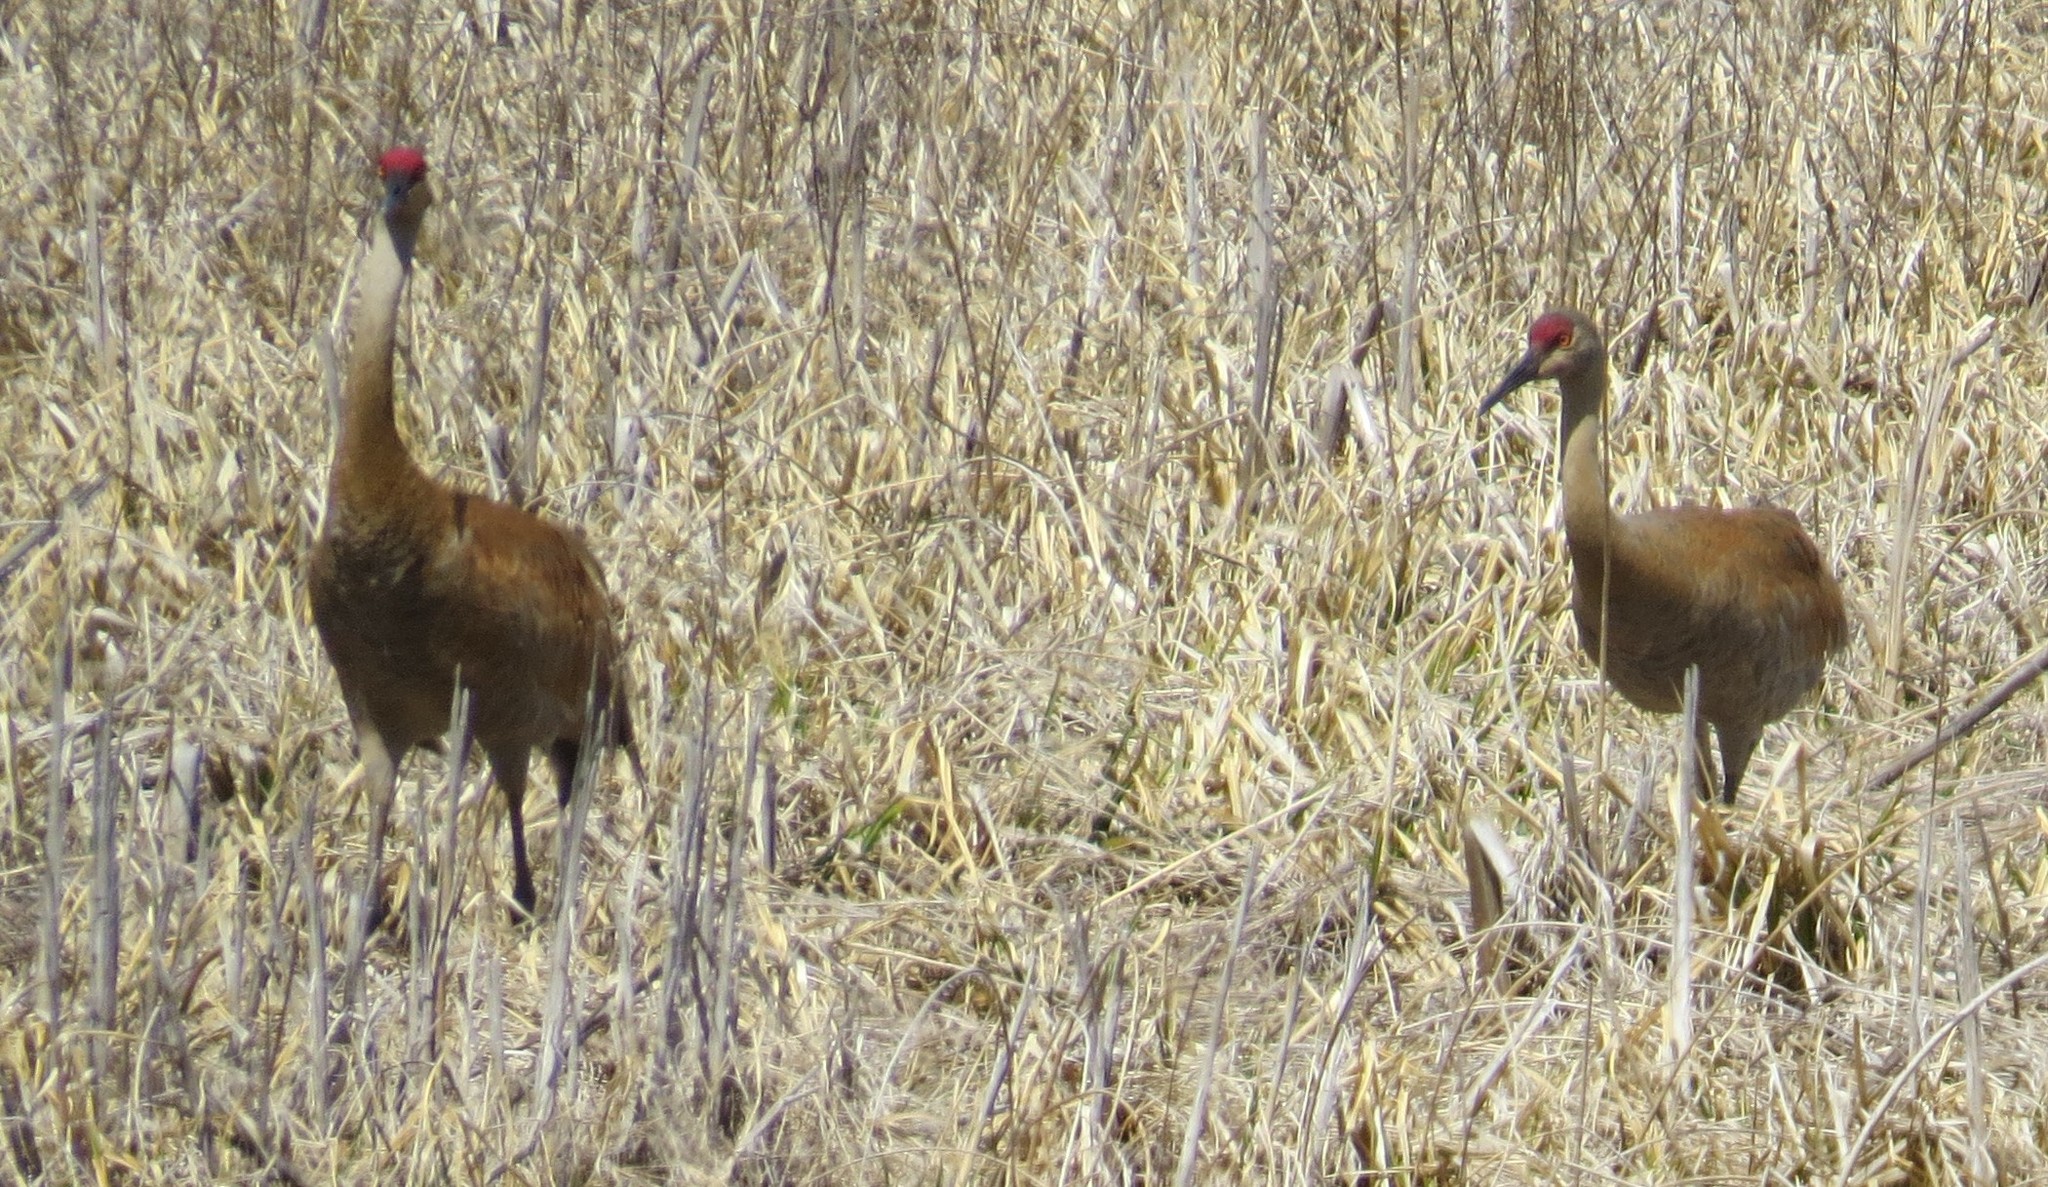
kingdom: Animalia
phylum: Chordata
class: Aves
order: Gruiformes
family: Gruidae
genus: Grus
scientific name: Grus canadensis
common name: Sandhill crane
